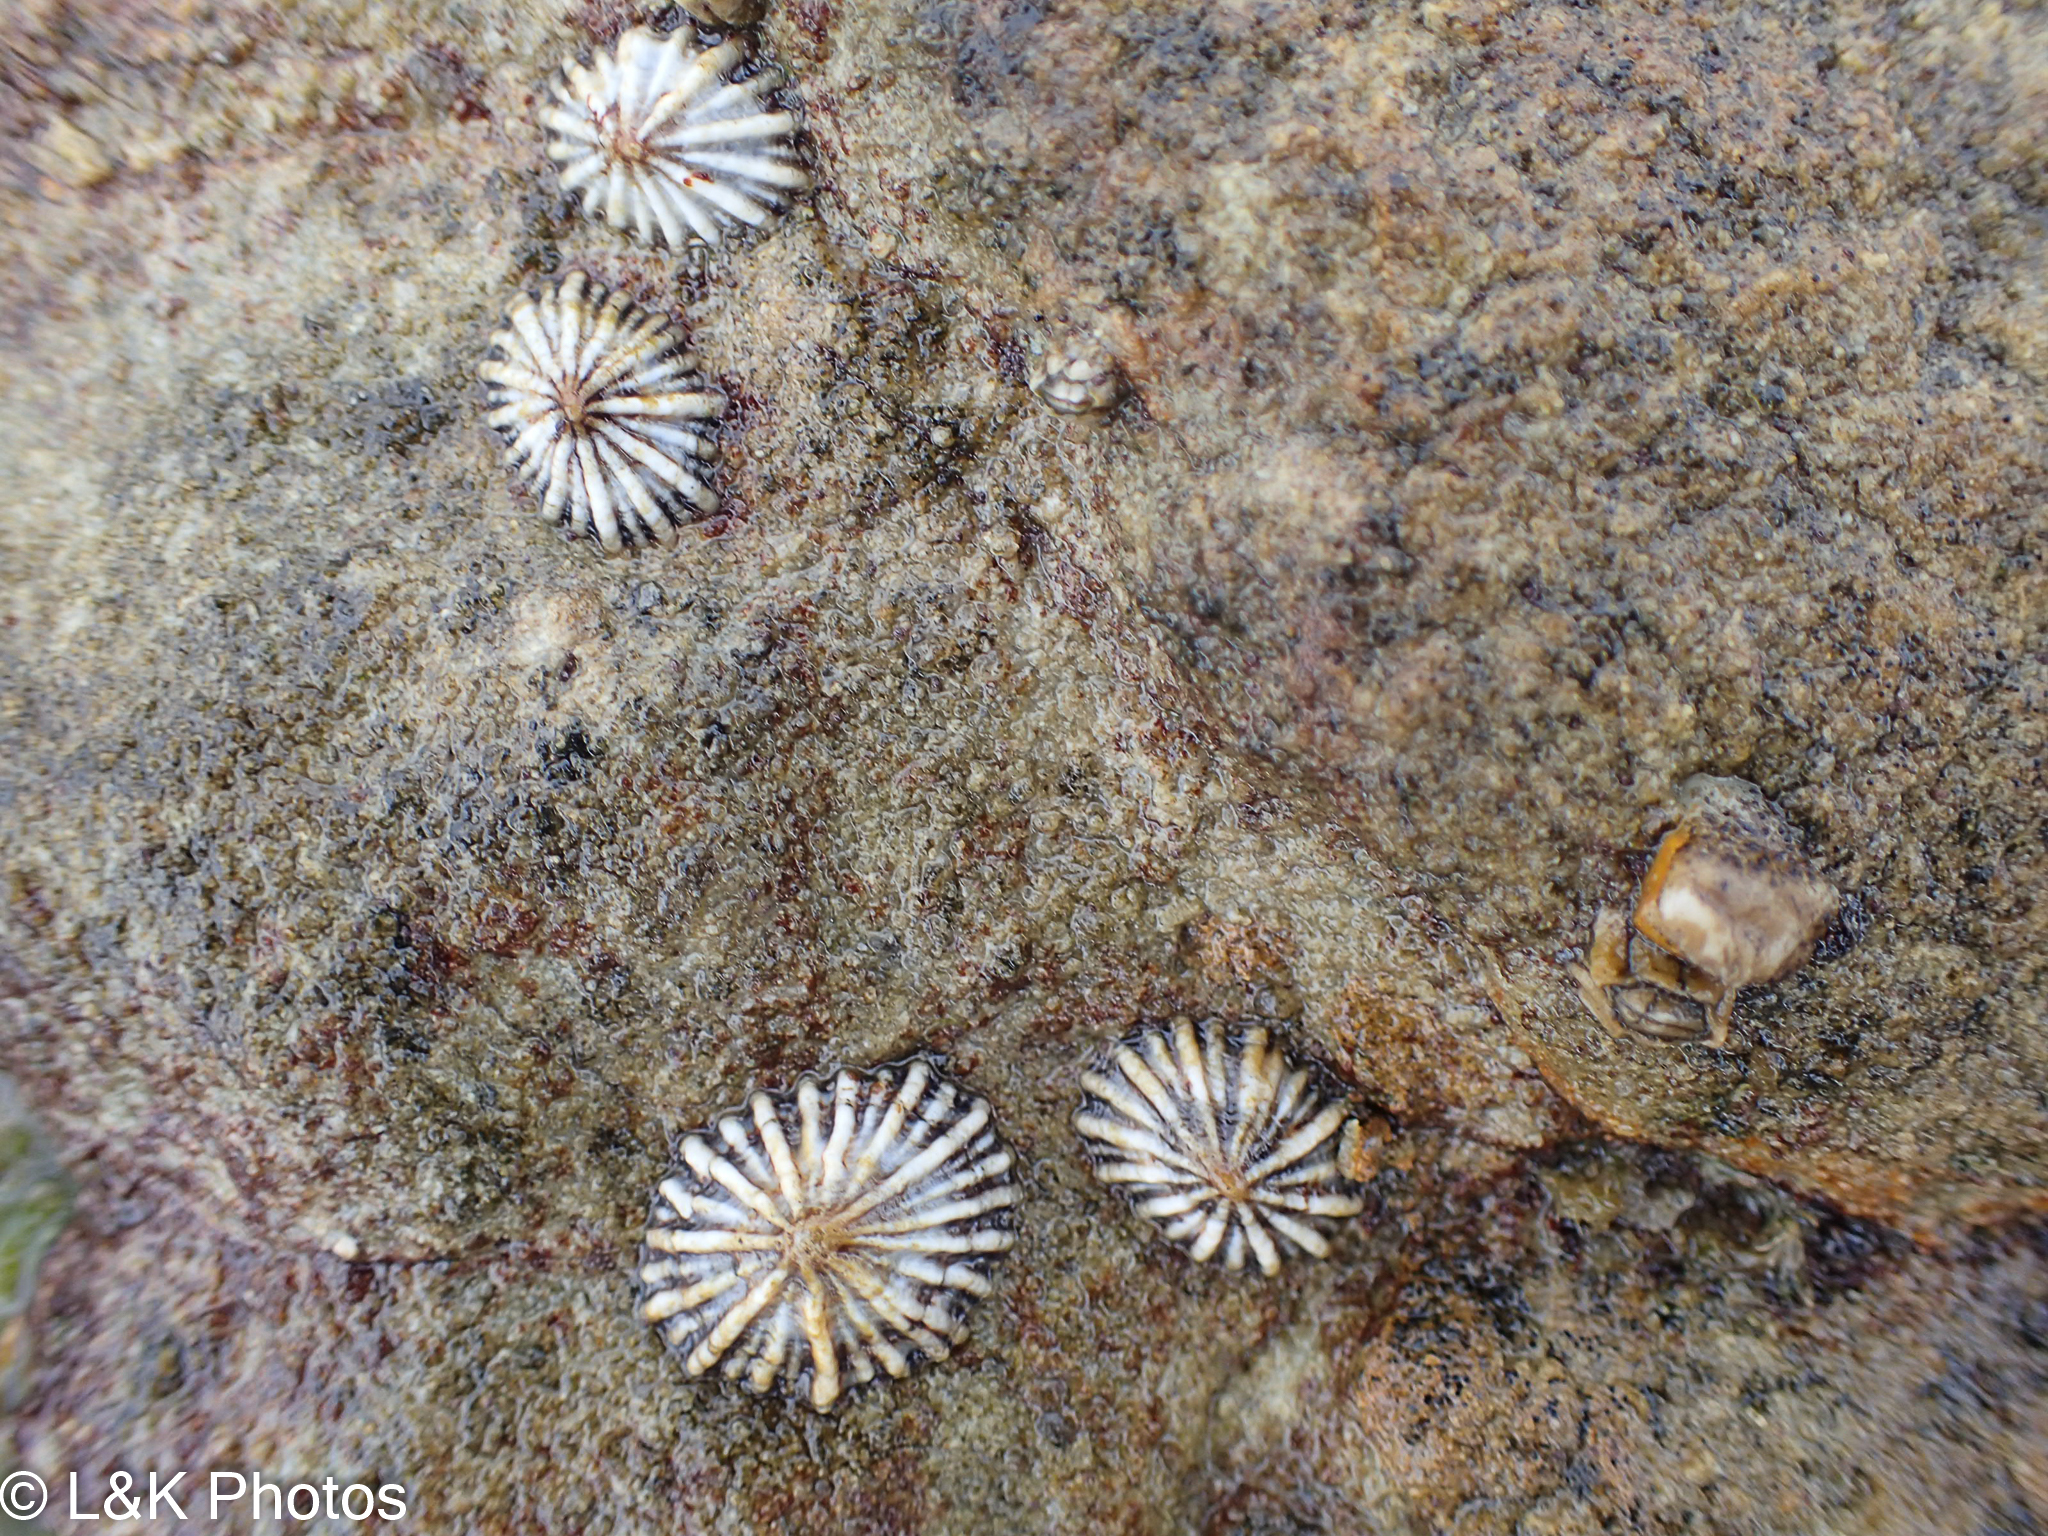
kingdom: Animalia
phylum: Mollusca
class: Gastropoda
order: Siphonariida
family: Siphonariidae
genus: Siphonaria
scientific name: Siphonaria diemenensis
